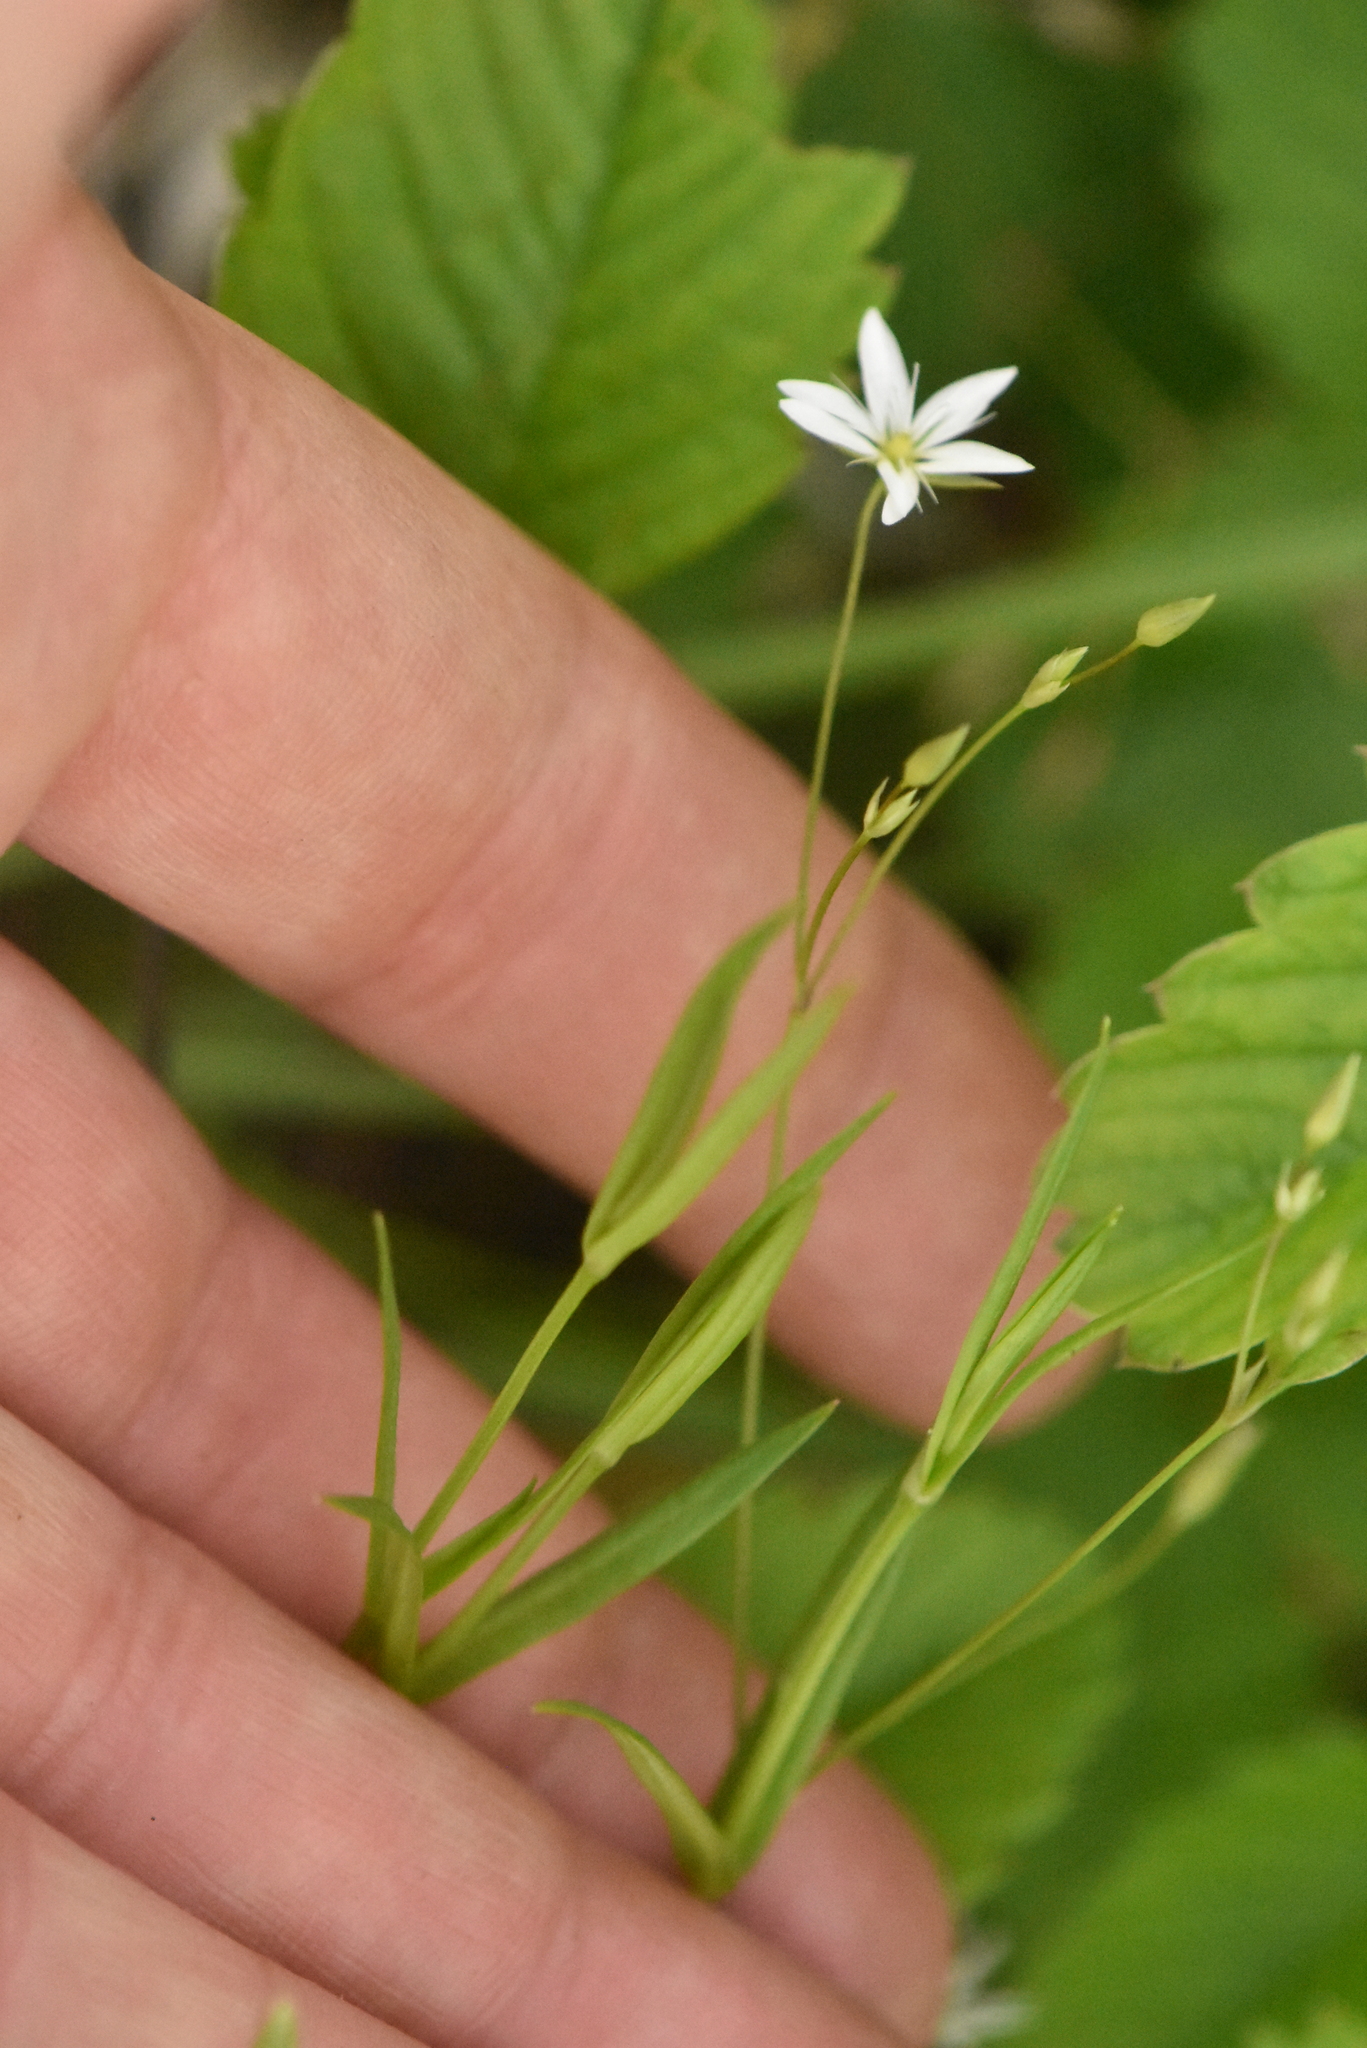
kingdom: Plantae
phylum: Tracheophyta
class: Magnoliopsida
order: Caryophyllales
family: Caryophyllaceae
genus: Stellaria
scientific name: Stellaria graminea
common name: Grass-like starwort
